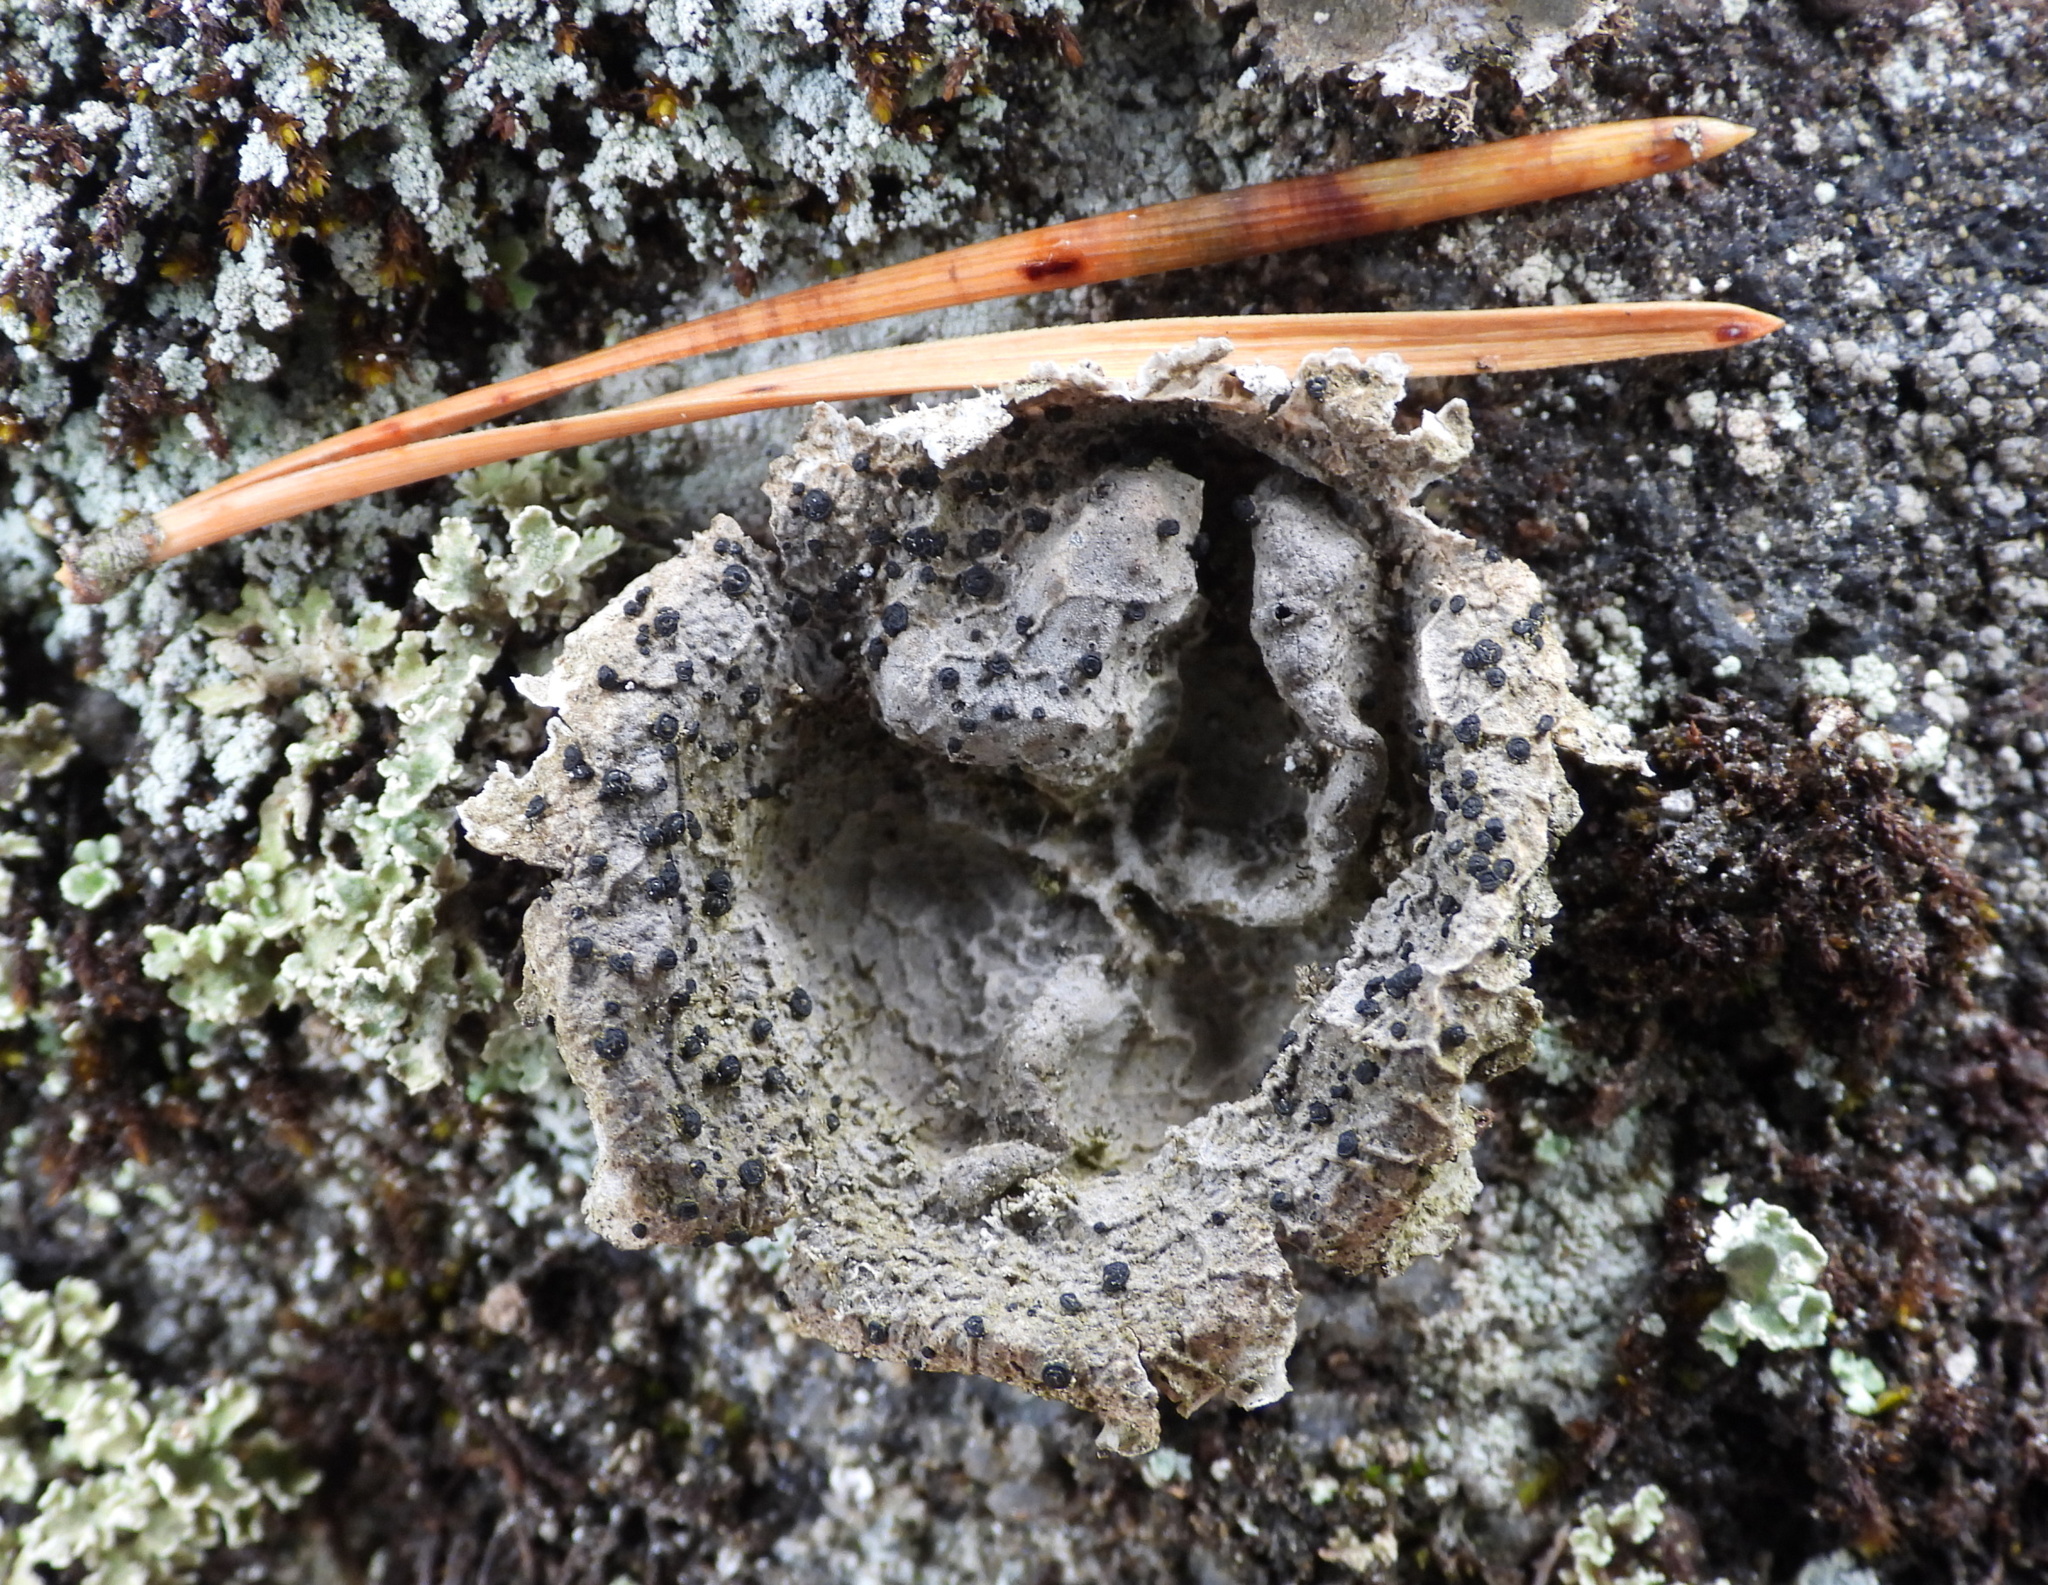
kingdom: Fungi
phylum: Ascomycota
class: Lecanoromycetes
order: Umbilicariales
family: Umbilicariaceae
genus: Umbilicaria
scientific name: Umbilicaria proboscidea
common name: Greater salted rocktripe lichen
